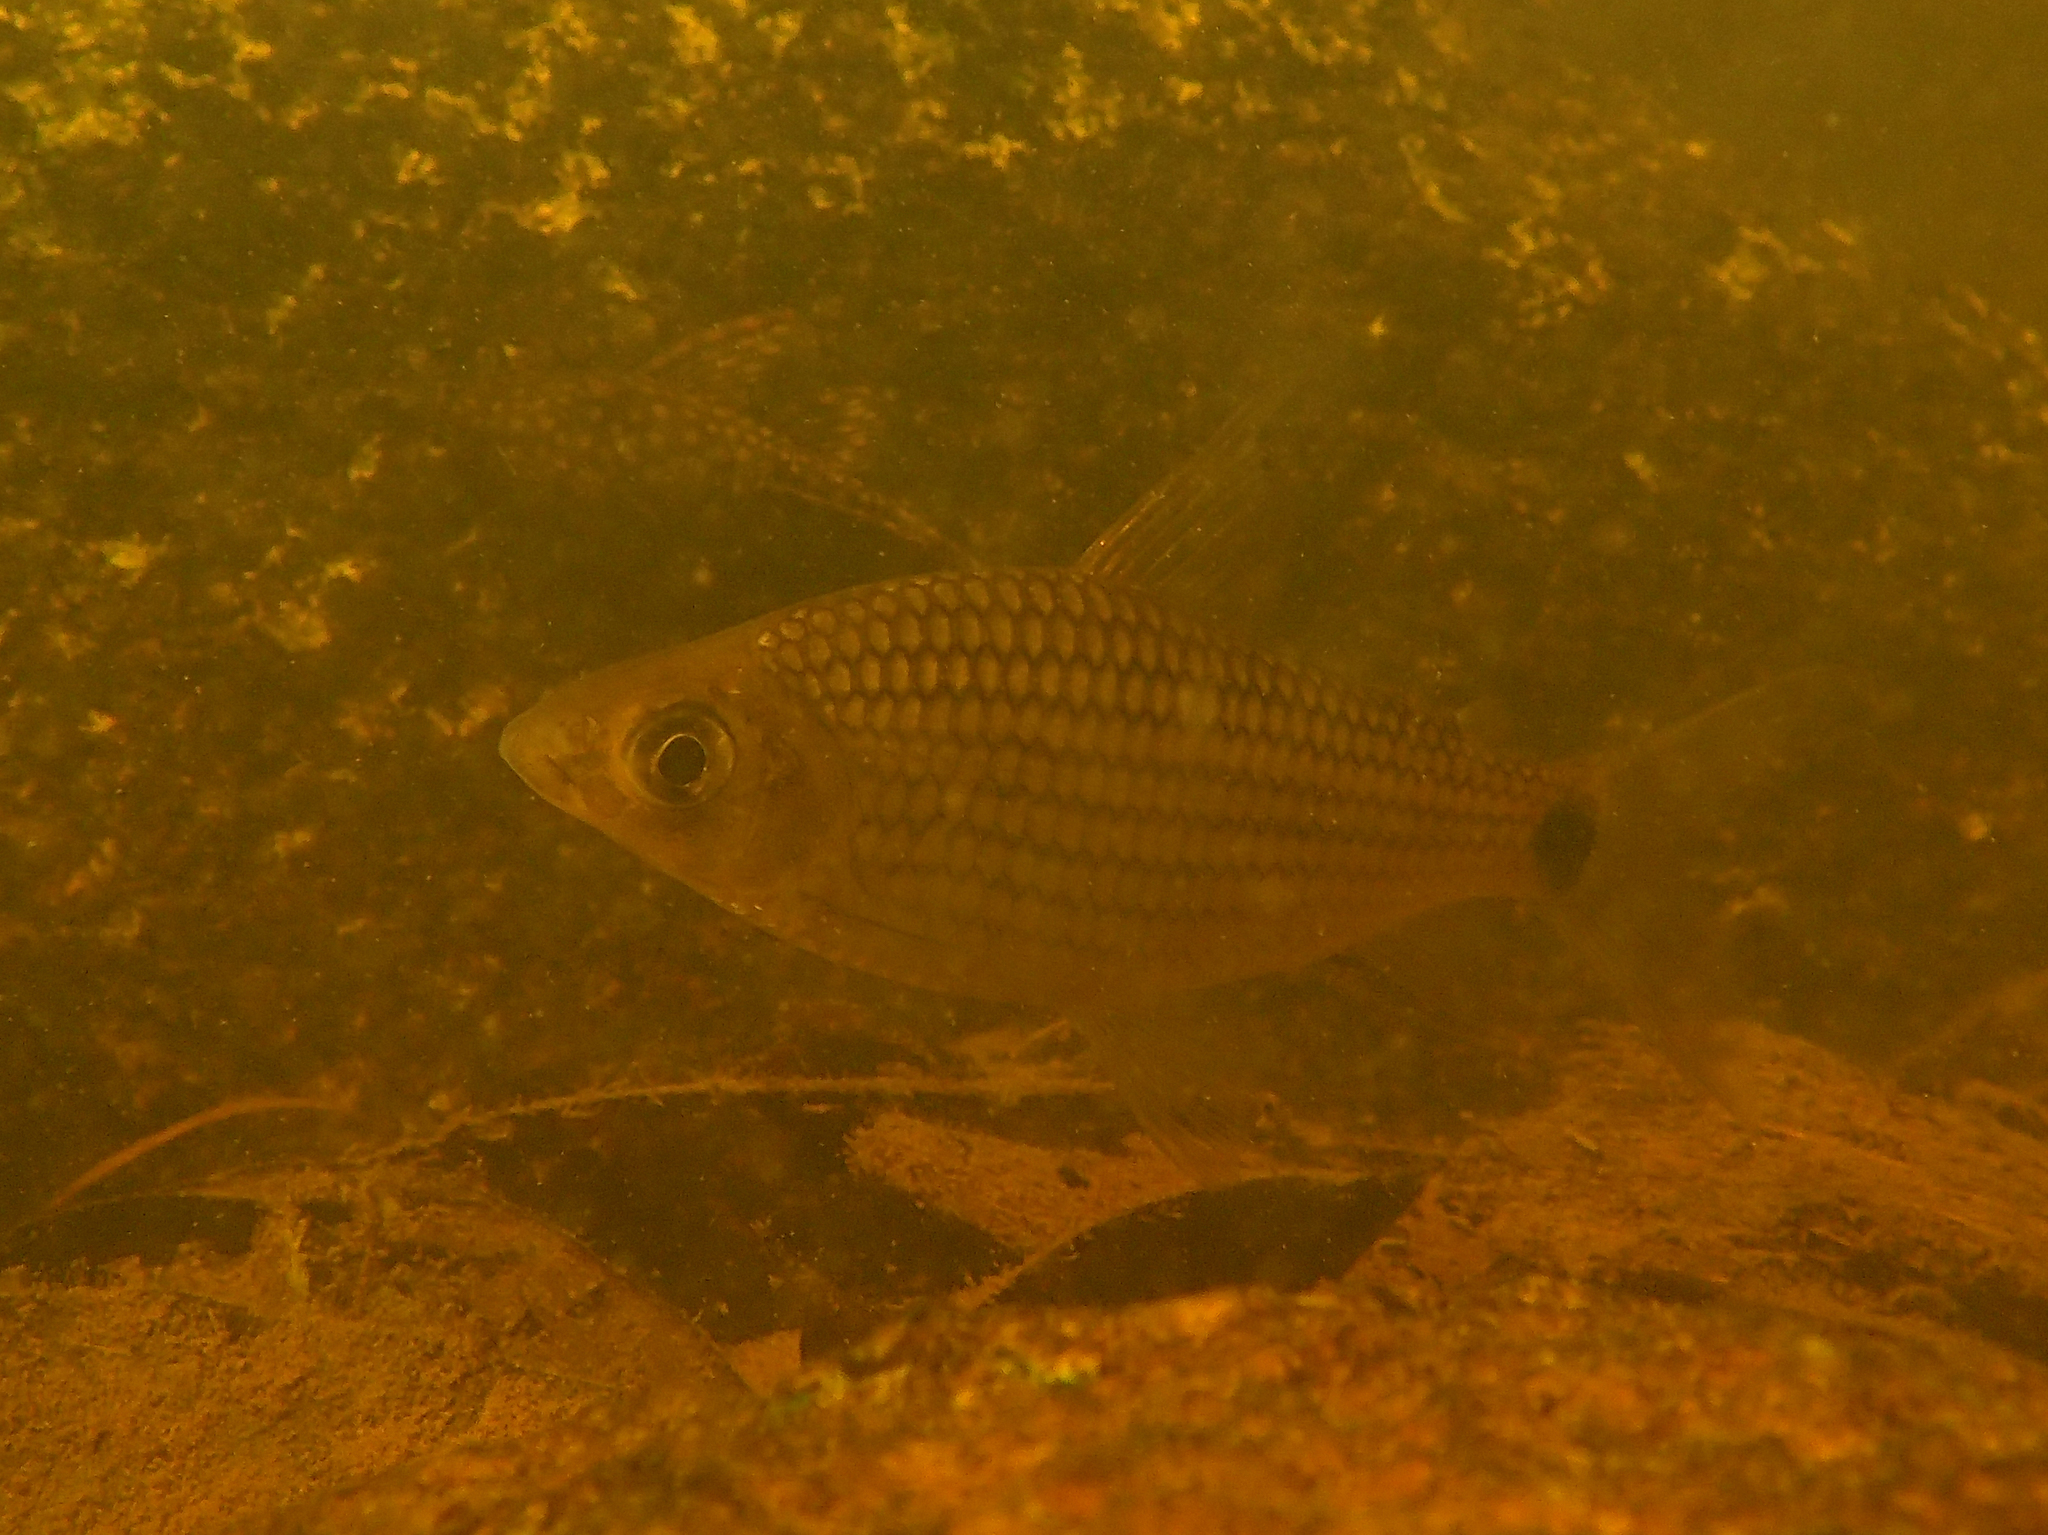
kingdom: Animalia
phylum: Chordata
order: Characiformes
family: Curimatidae
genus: Cyphocharax
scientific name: Cyphocharax helleri
